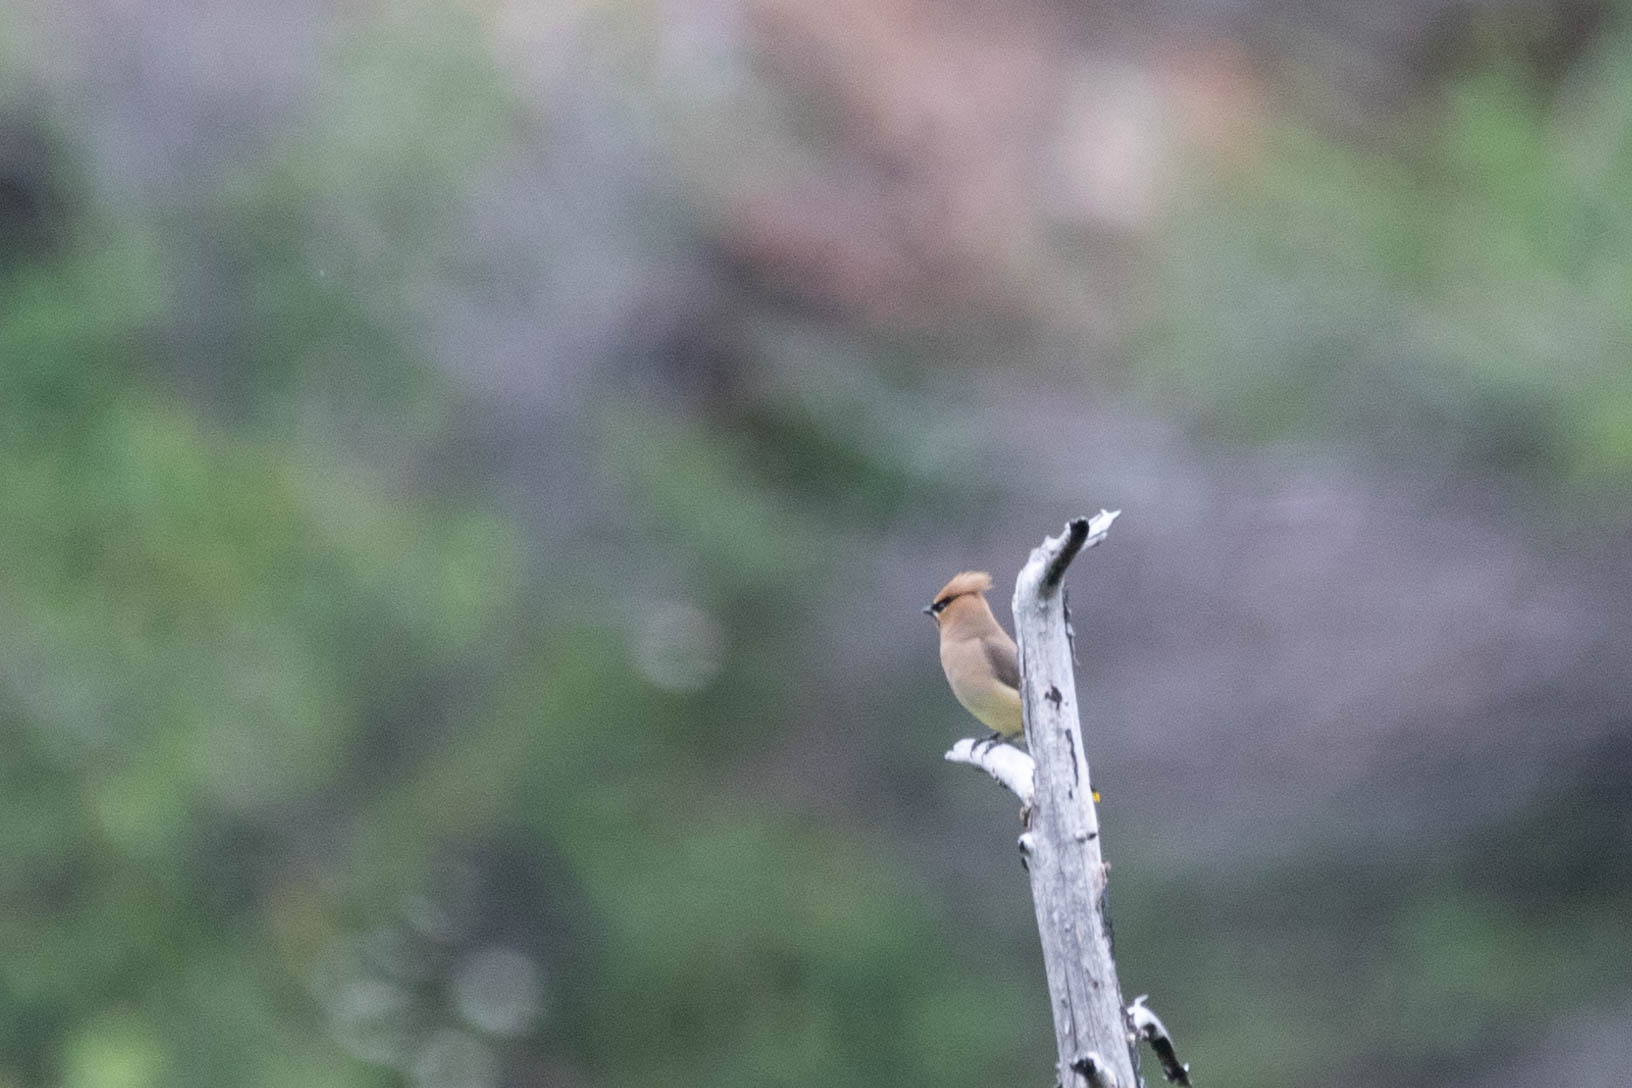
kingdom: Animalia
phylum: Chordata
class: Aves
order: Passeriformes
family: Bombycillidae
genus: Bombycilla
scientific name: Bombycilla cedrorum
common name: Cedar waxwing
